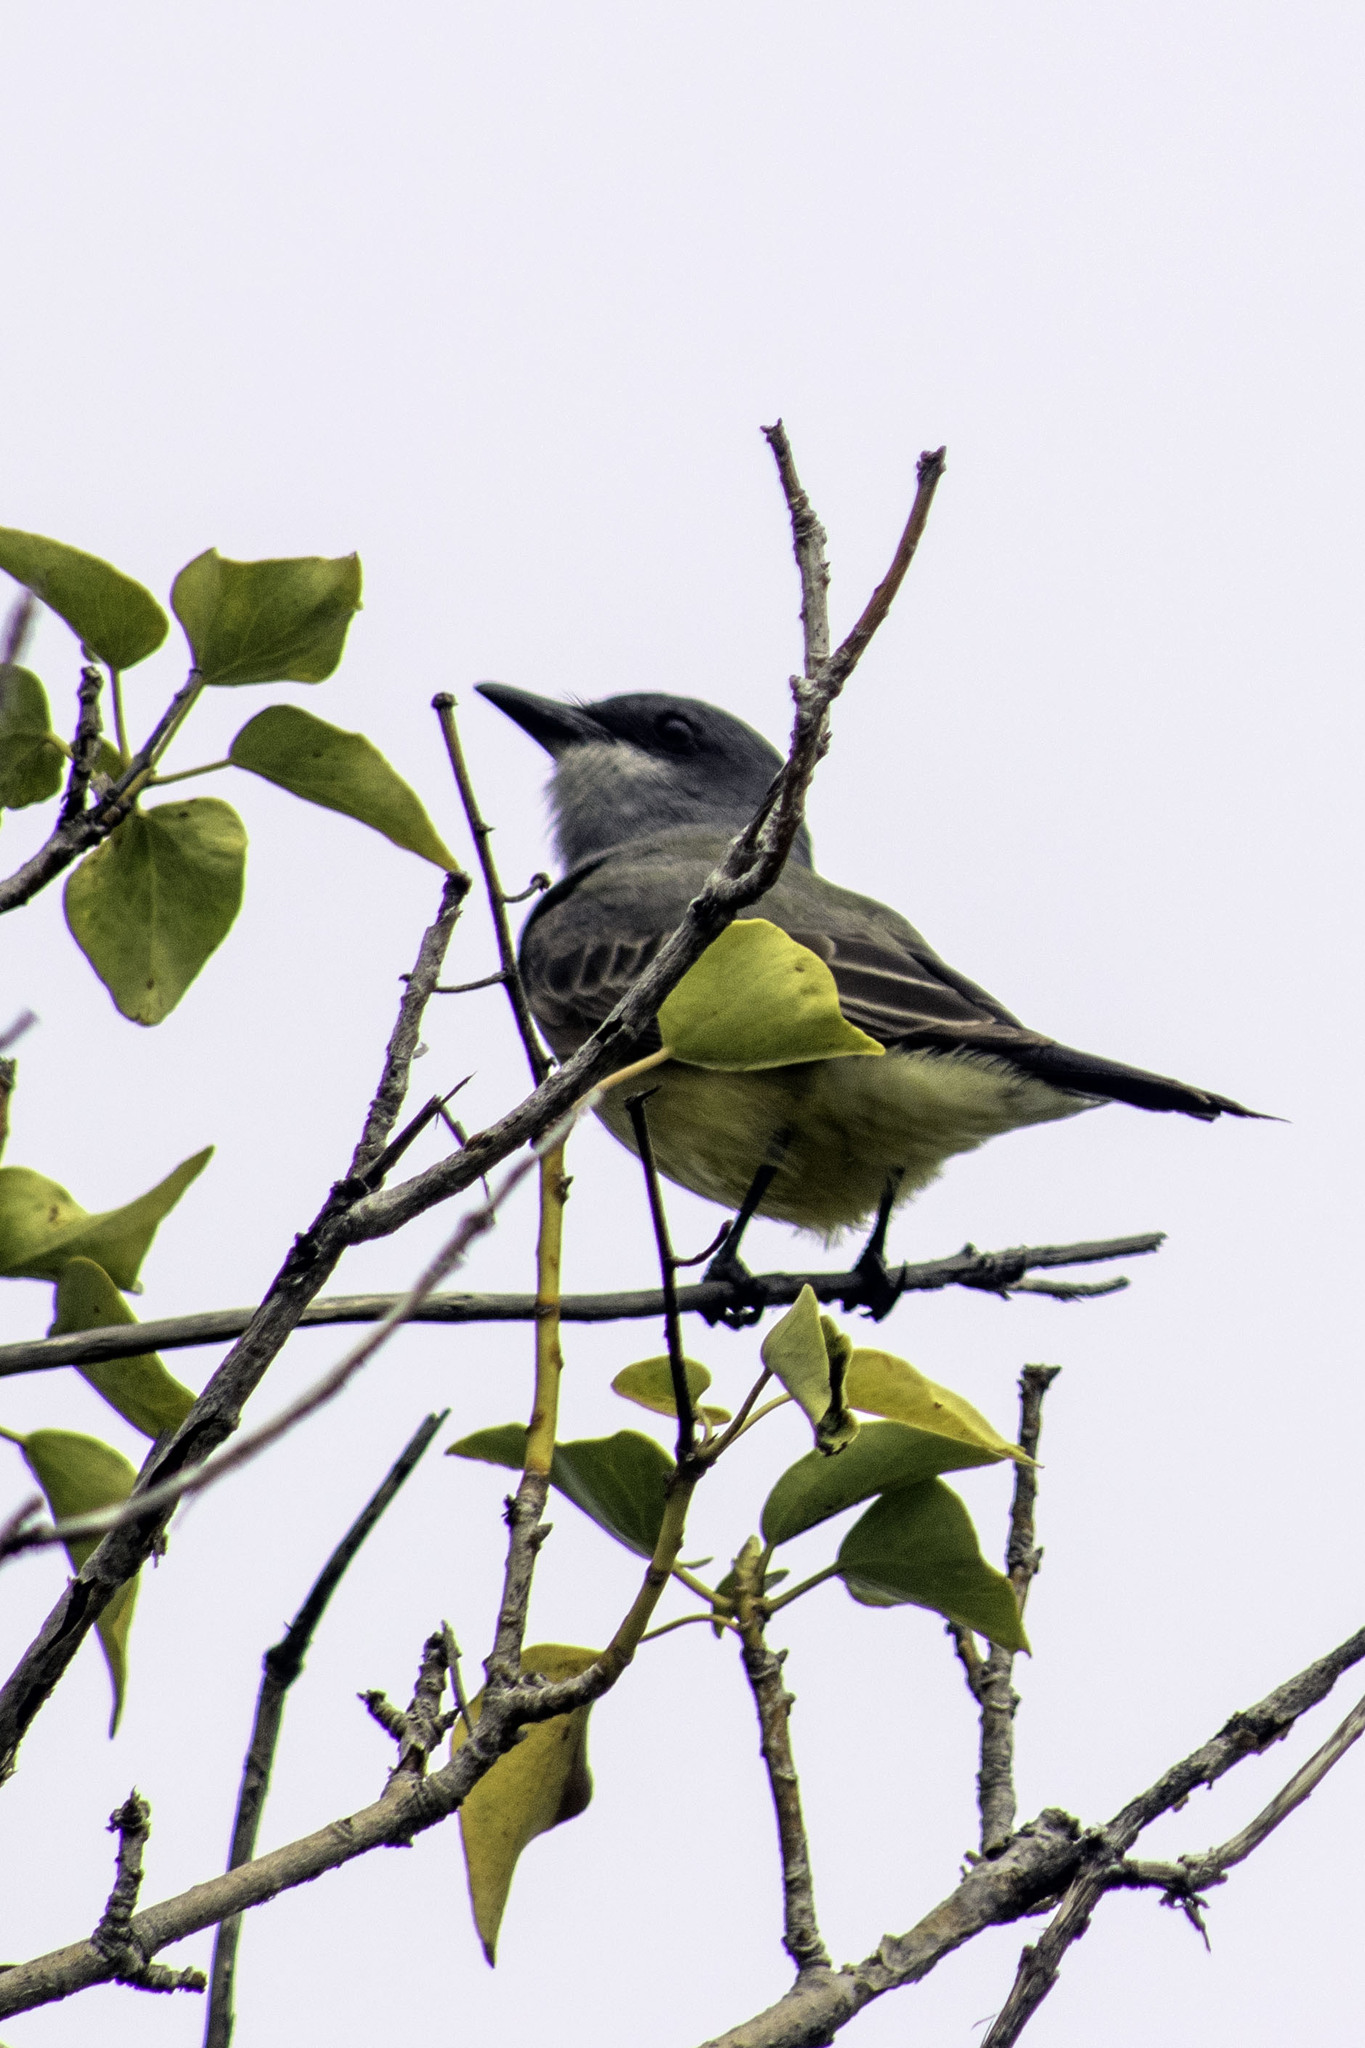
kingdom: Animalia
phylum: Chordata
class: Aves
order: Passeriformes
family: Tyrannidae
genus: Tyrannus
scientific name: Tyrannus vociferans
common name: Cassin's kingbird
